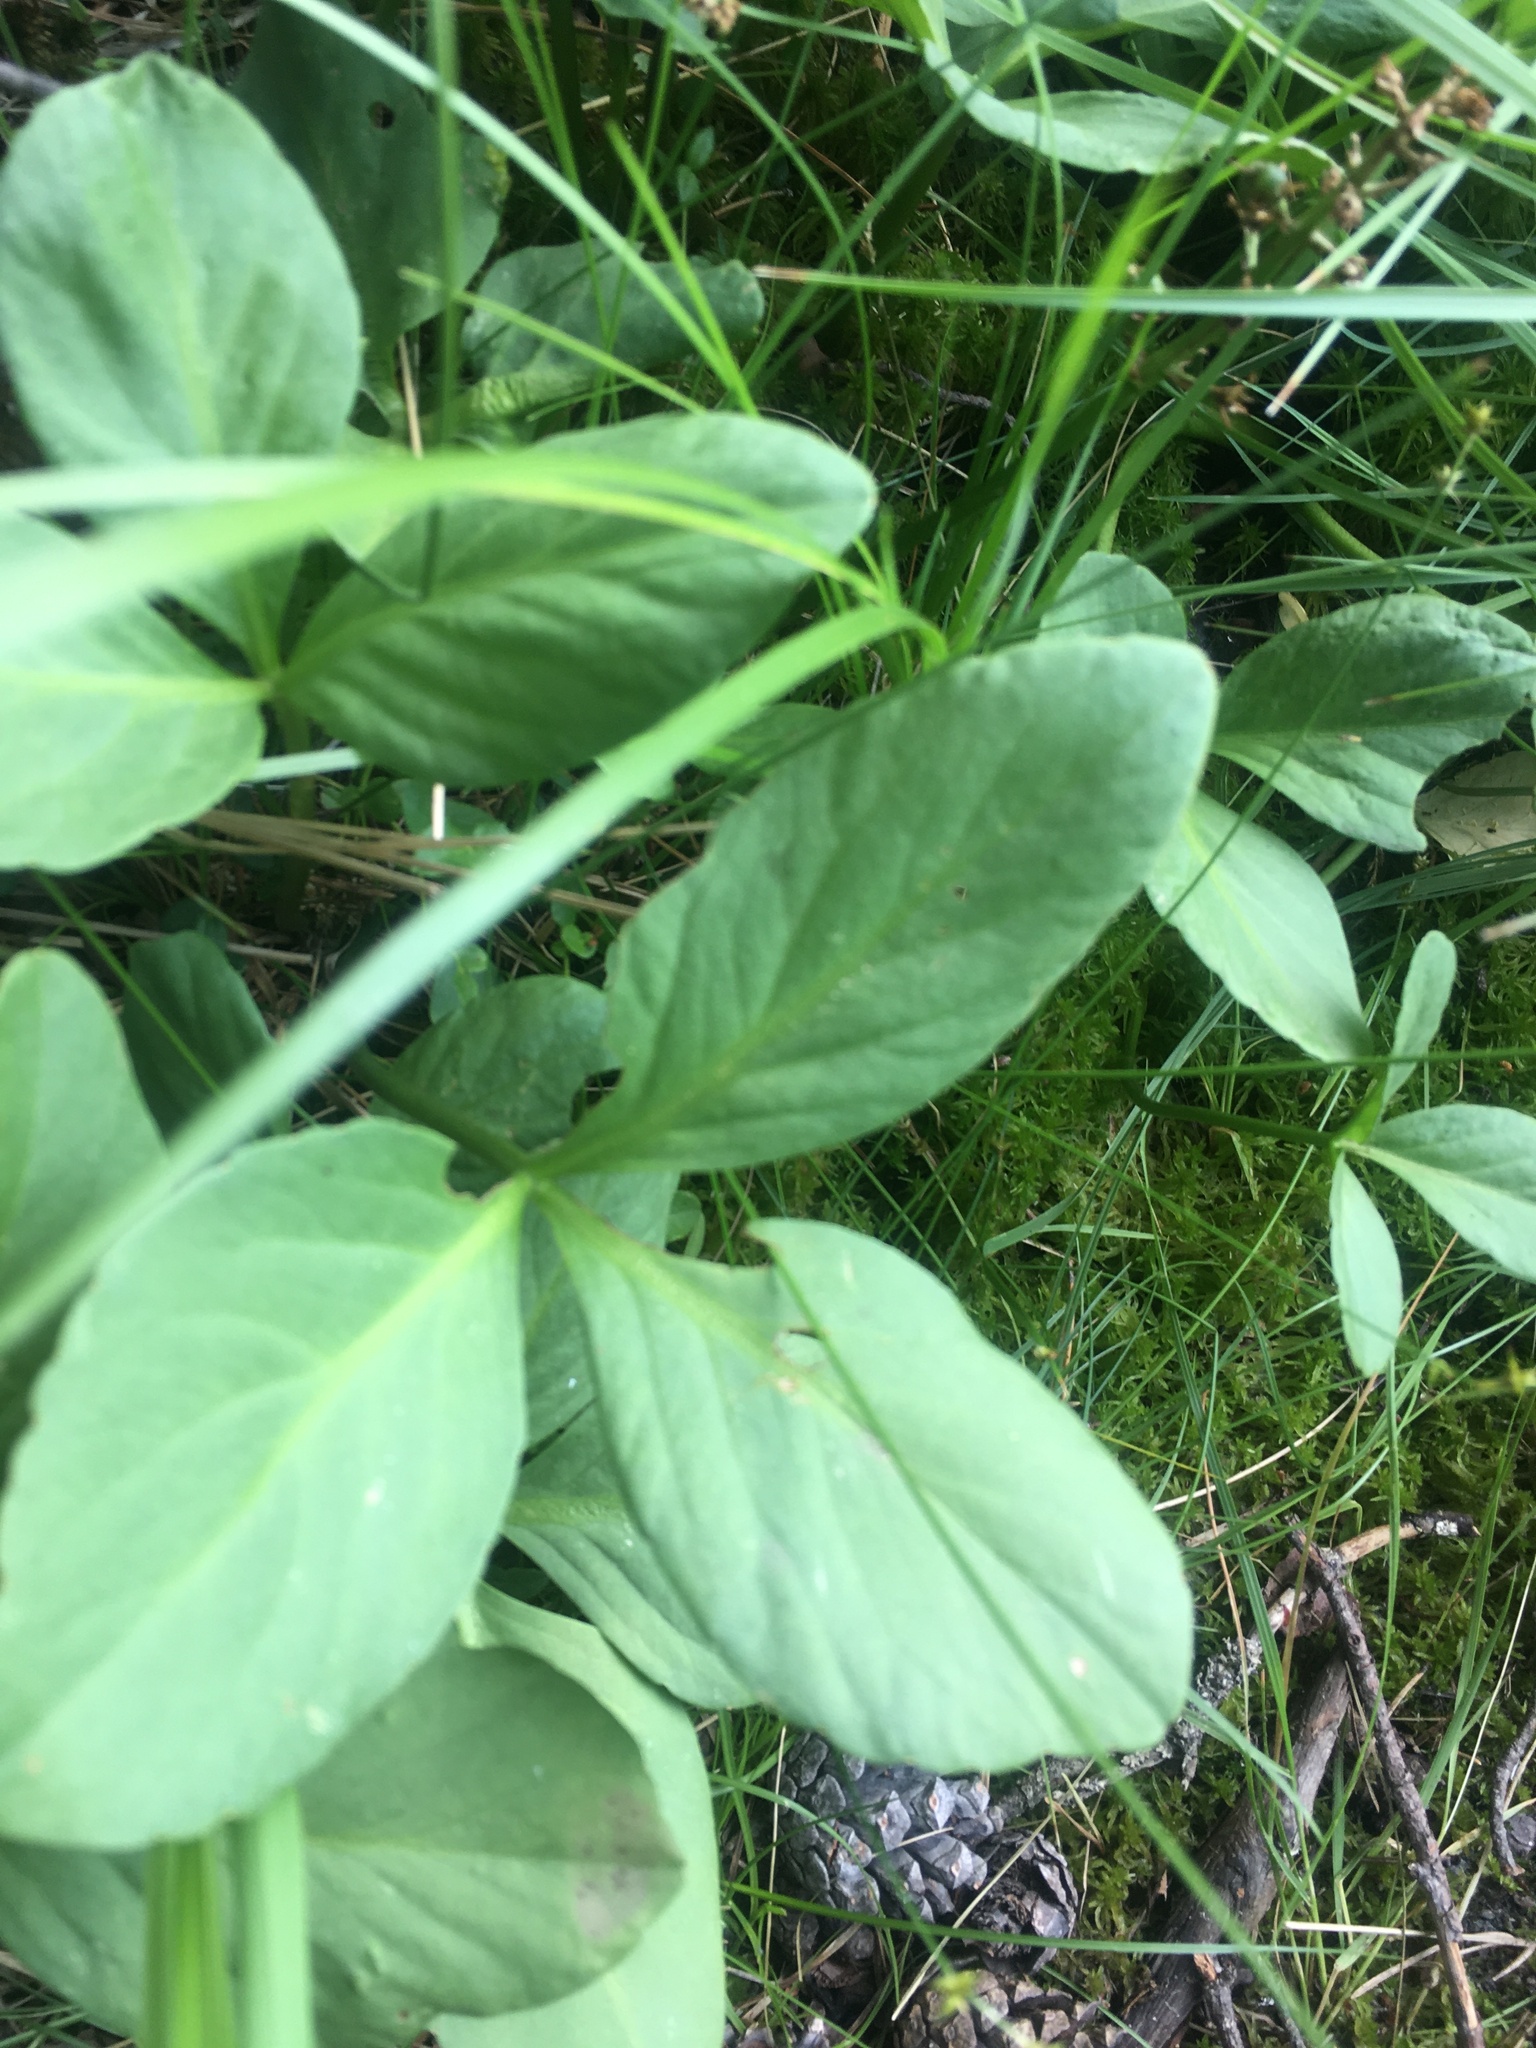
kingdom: Plantae
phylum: Tracheophyta
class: Magnoliopsida
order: Asterales
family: Menyanthaceae
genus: Menyanthes
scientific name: Menyanthes trifoliata
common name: Bogbean
